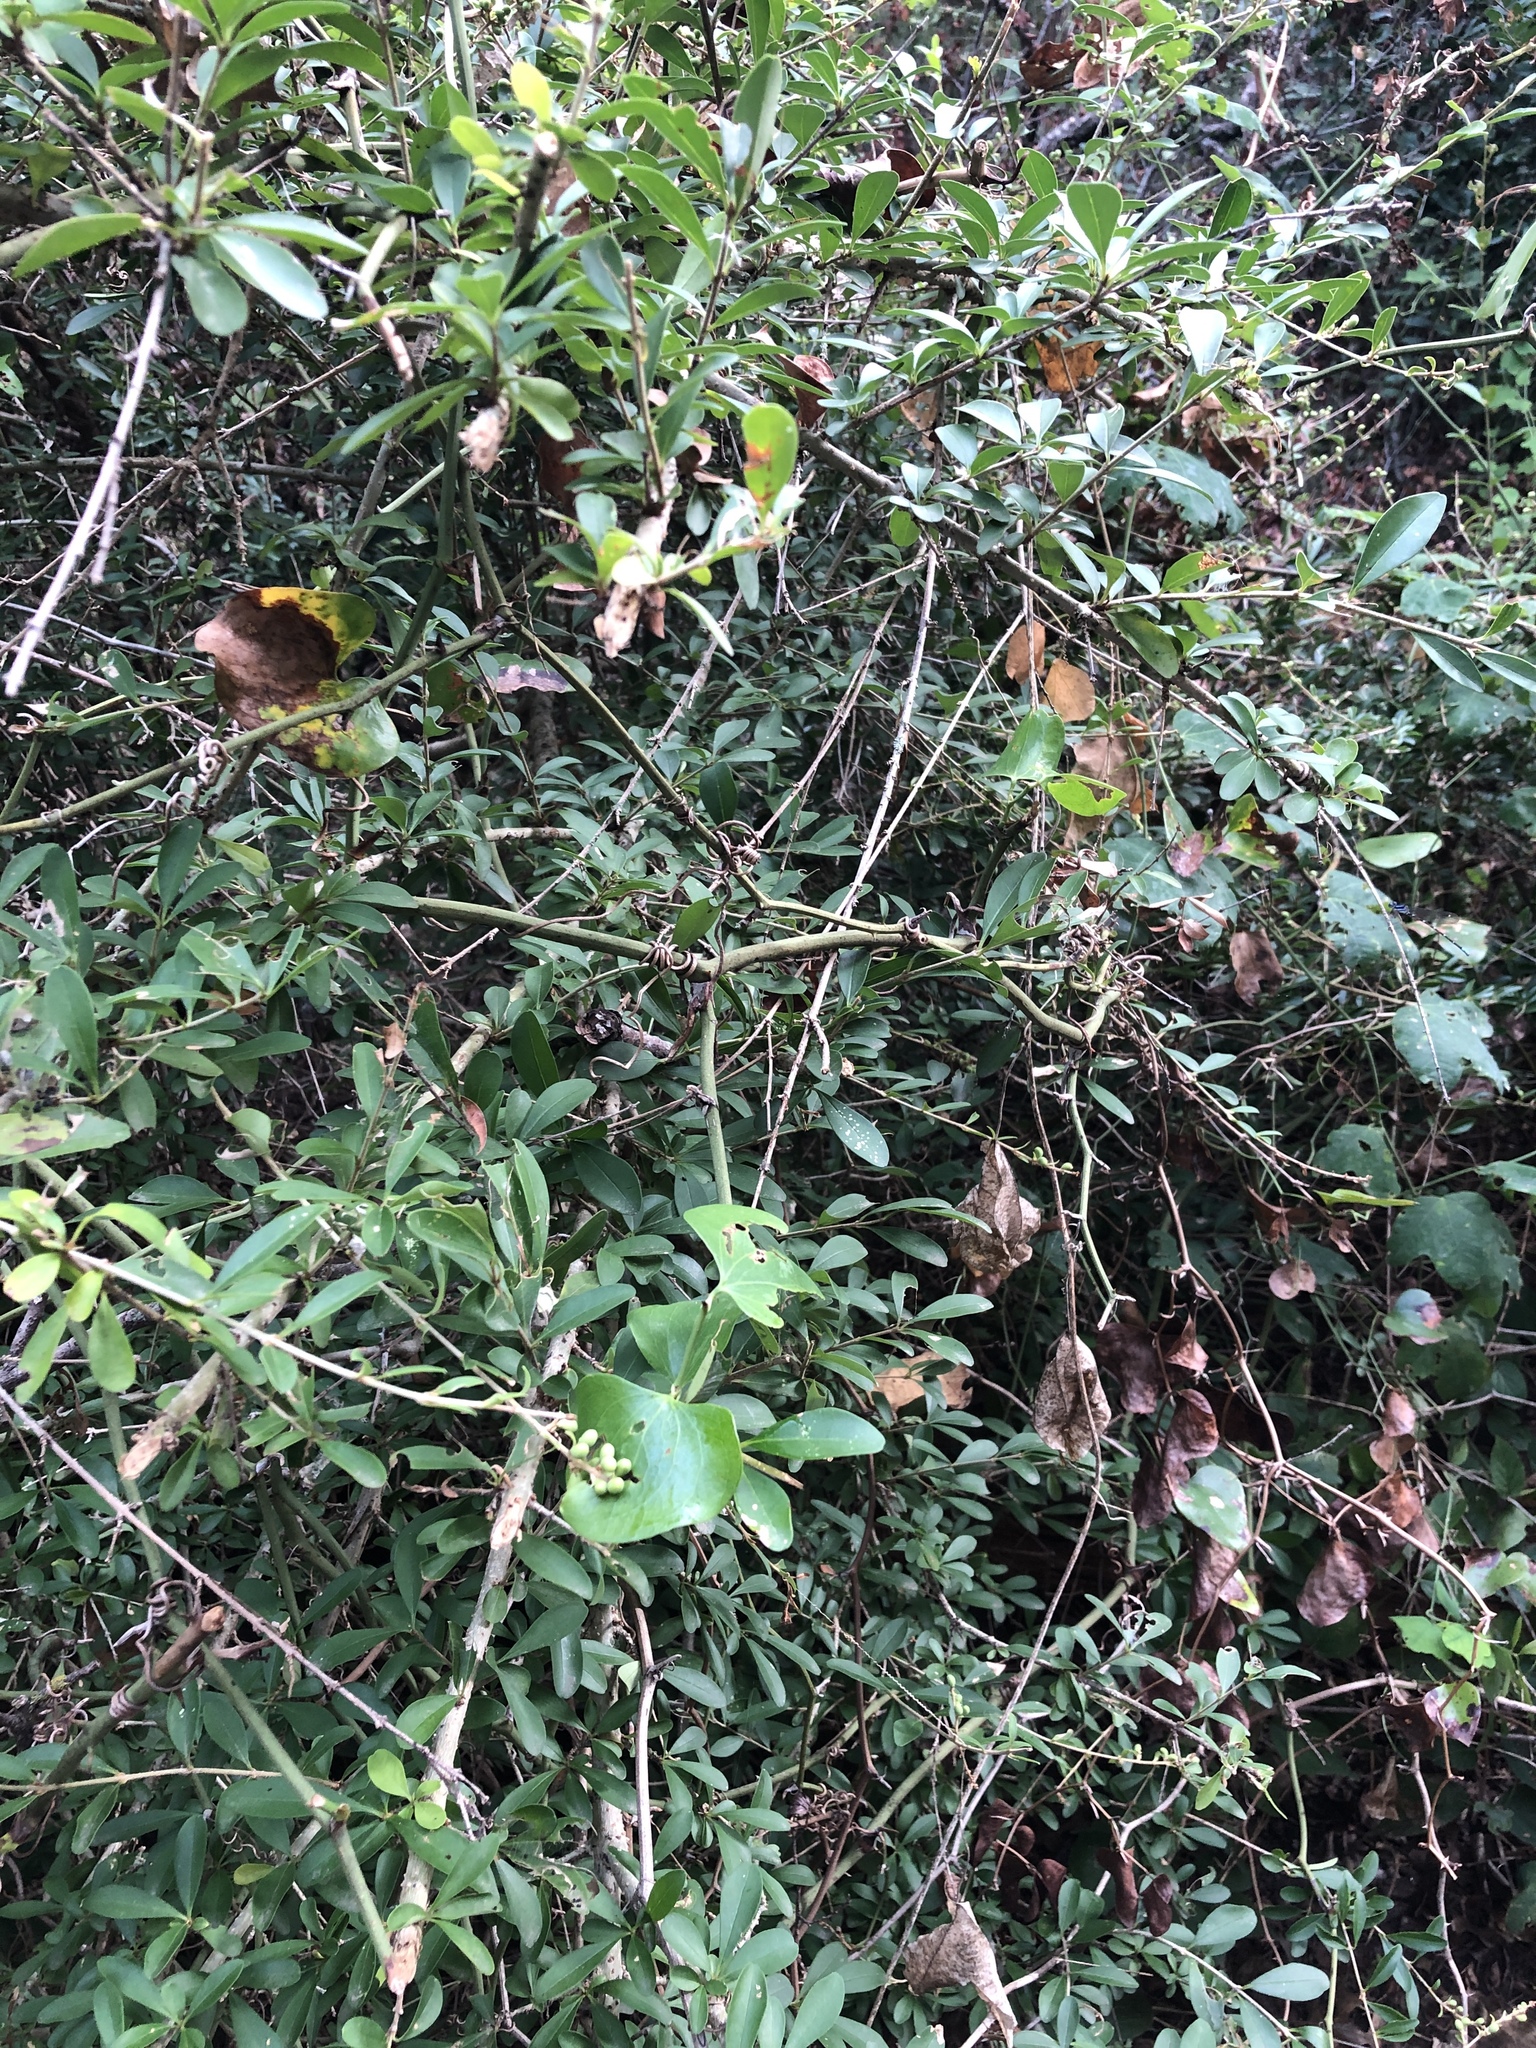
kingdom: Plantae
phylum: Tracheophyta
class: Magnoliopsida
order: Lamiales
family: Oleaceae
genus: Ligustrum
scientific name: Ligustrum quihoui
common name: Waxyleaf privet
